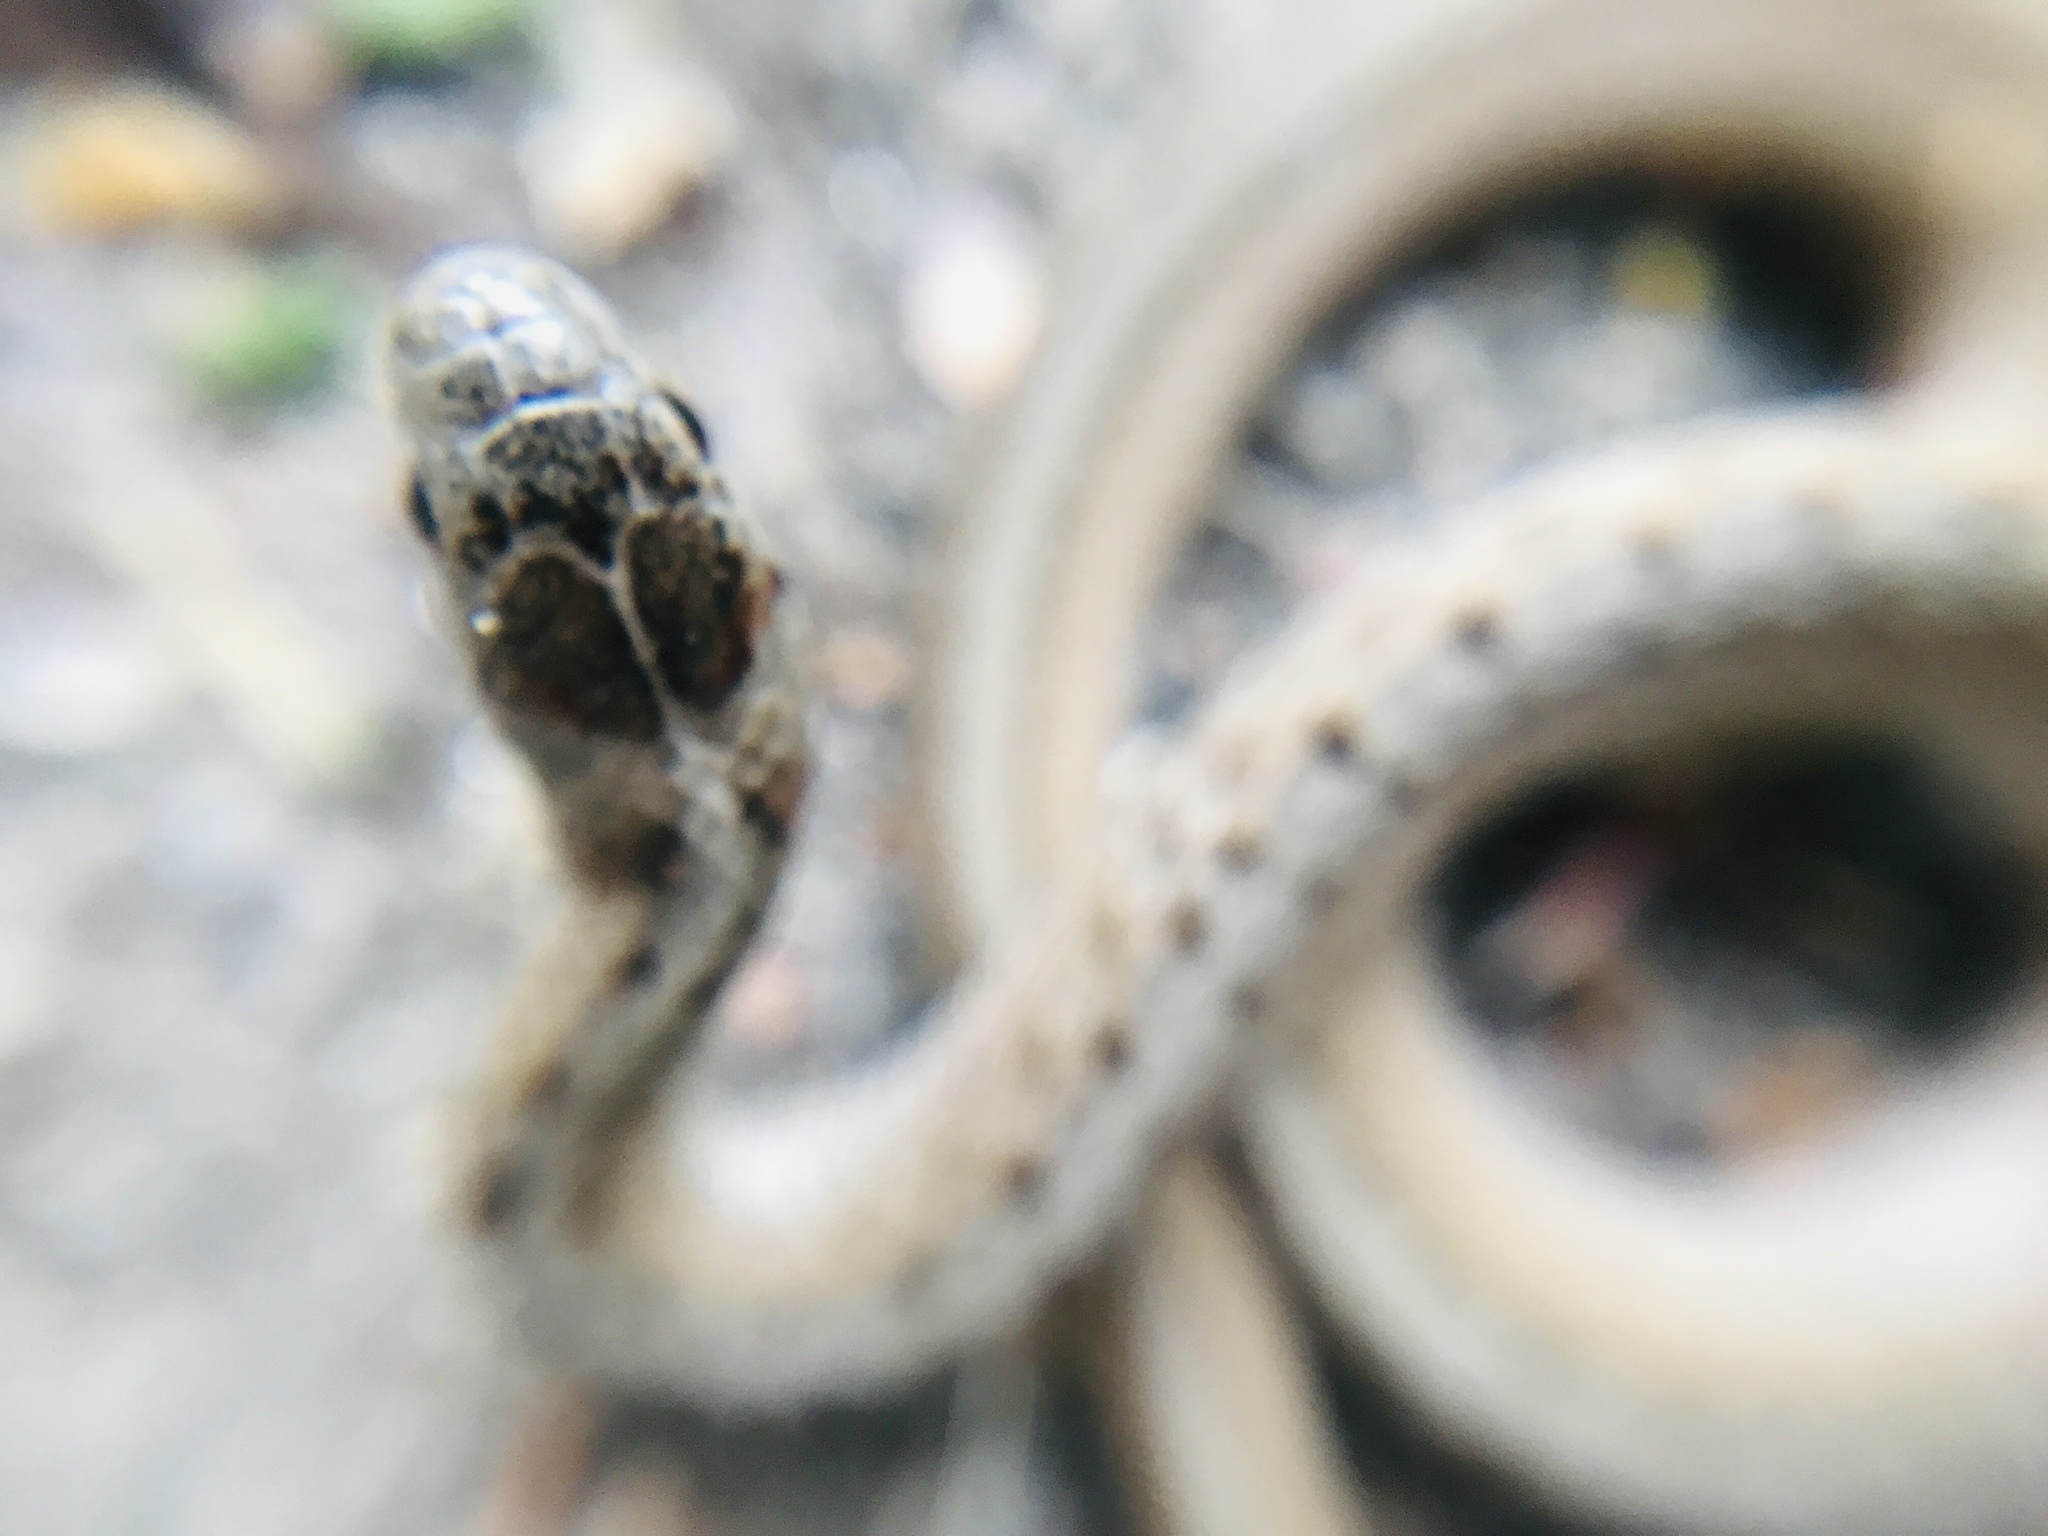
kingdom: Animalia
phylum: Chordata
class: Squamata
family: Colubridae
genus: Storeria
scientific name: Storeria dekayi
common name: (dekay’s) brown snake
